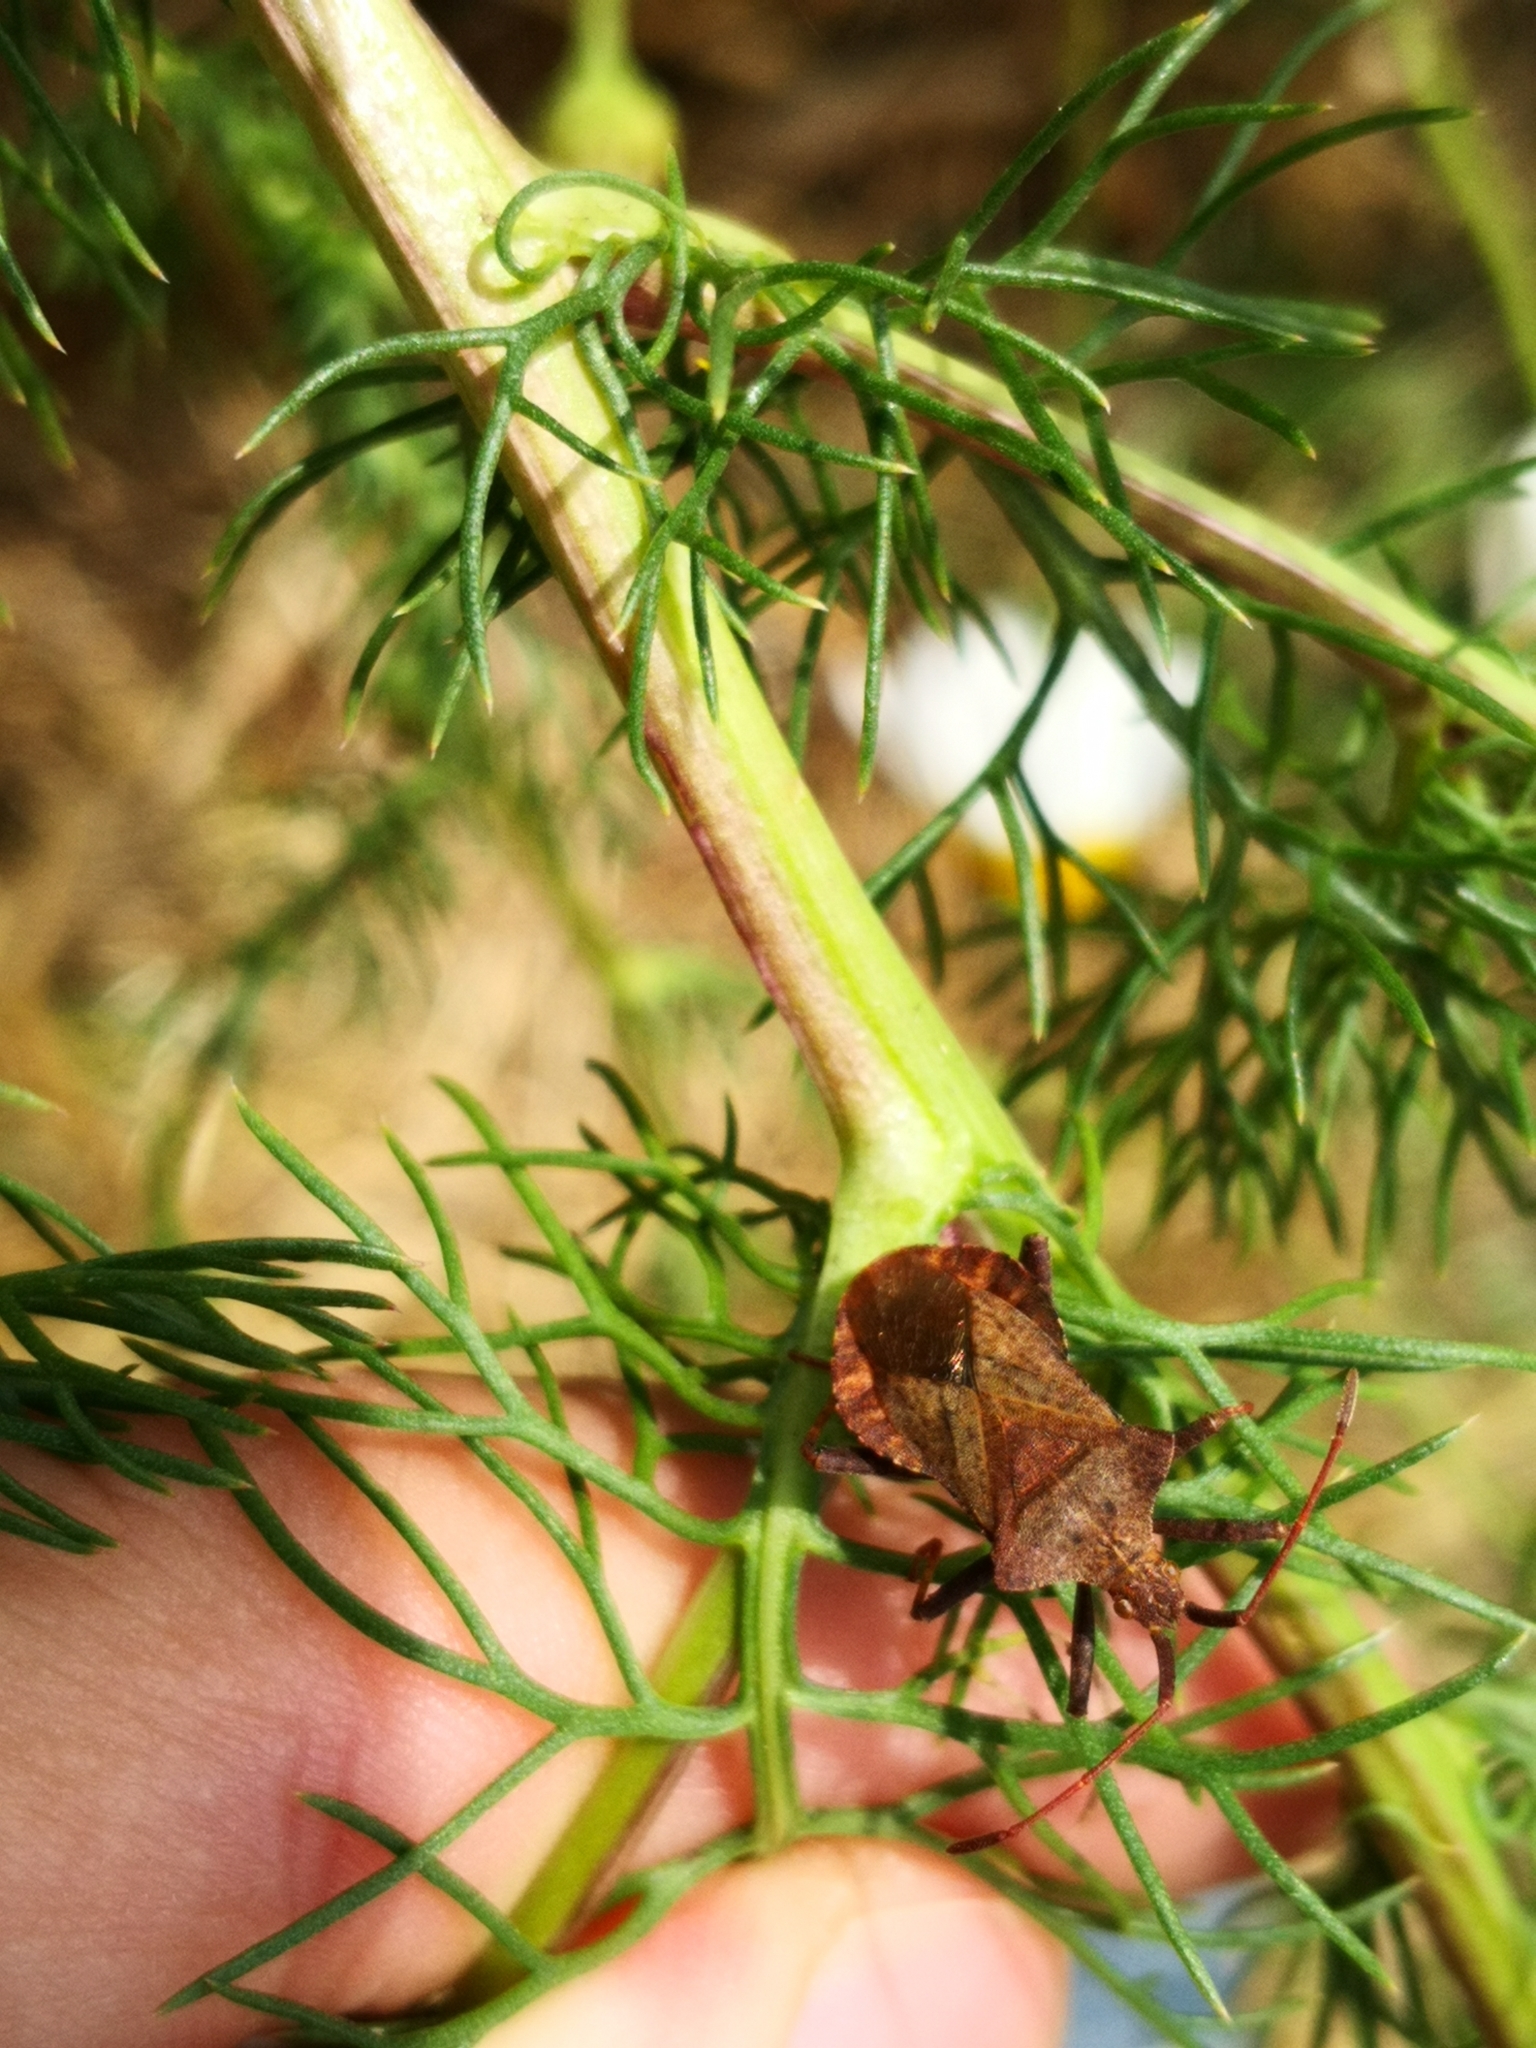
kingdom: Animalia
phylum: Arthropoda
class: Insecta
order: Hemiptera
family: Coreidae
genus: Coreus
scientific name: Coreus marginatus
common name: Dock bug
